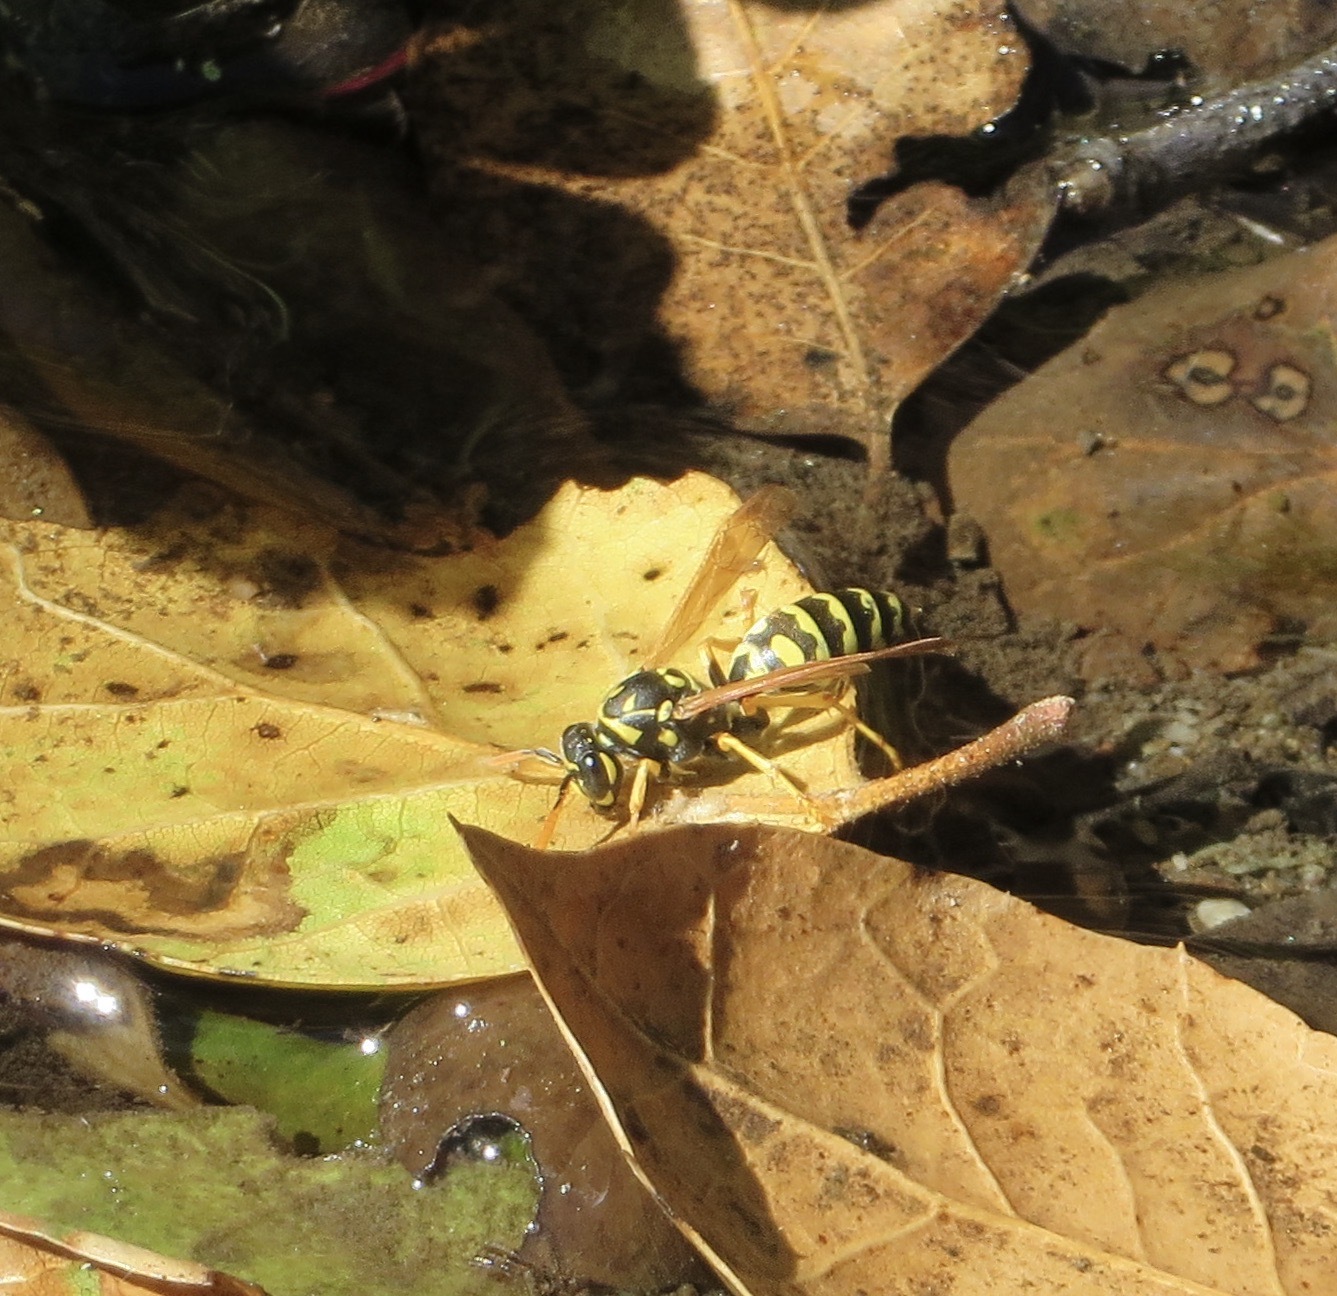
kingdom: Animalia
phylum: Arthropoda
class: Insecta
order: Hymenoptera
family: Eumenidae
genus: Polistes
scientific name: Polistes dominula
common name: Paper wasp
